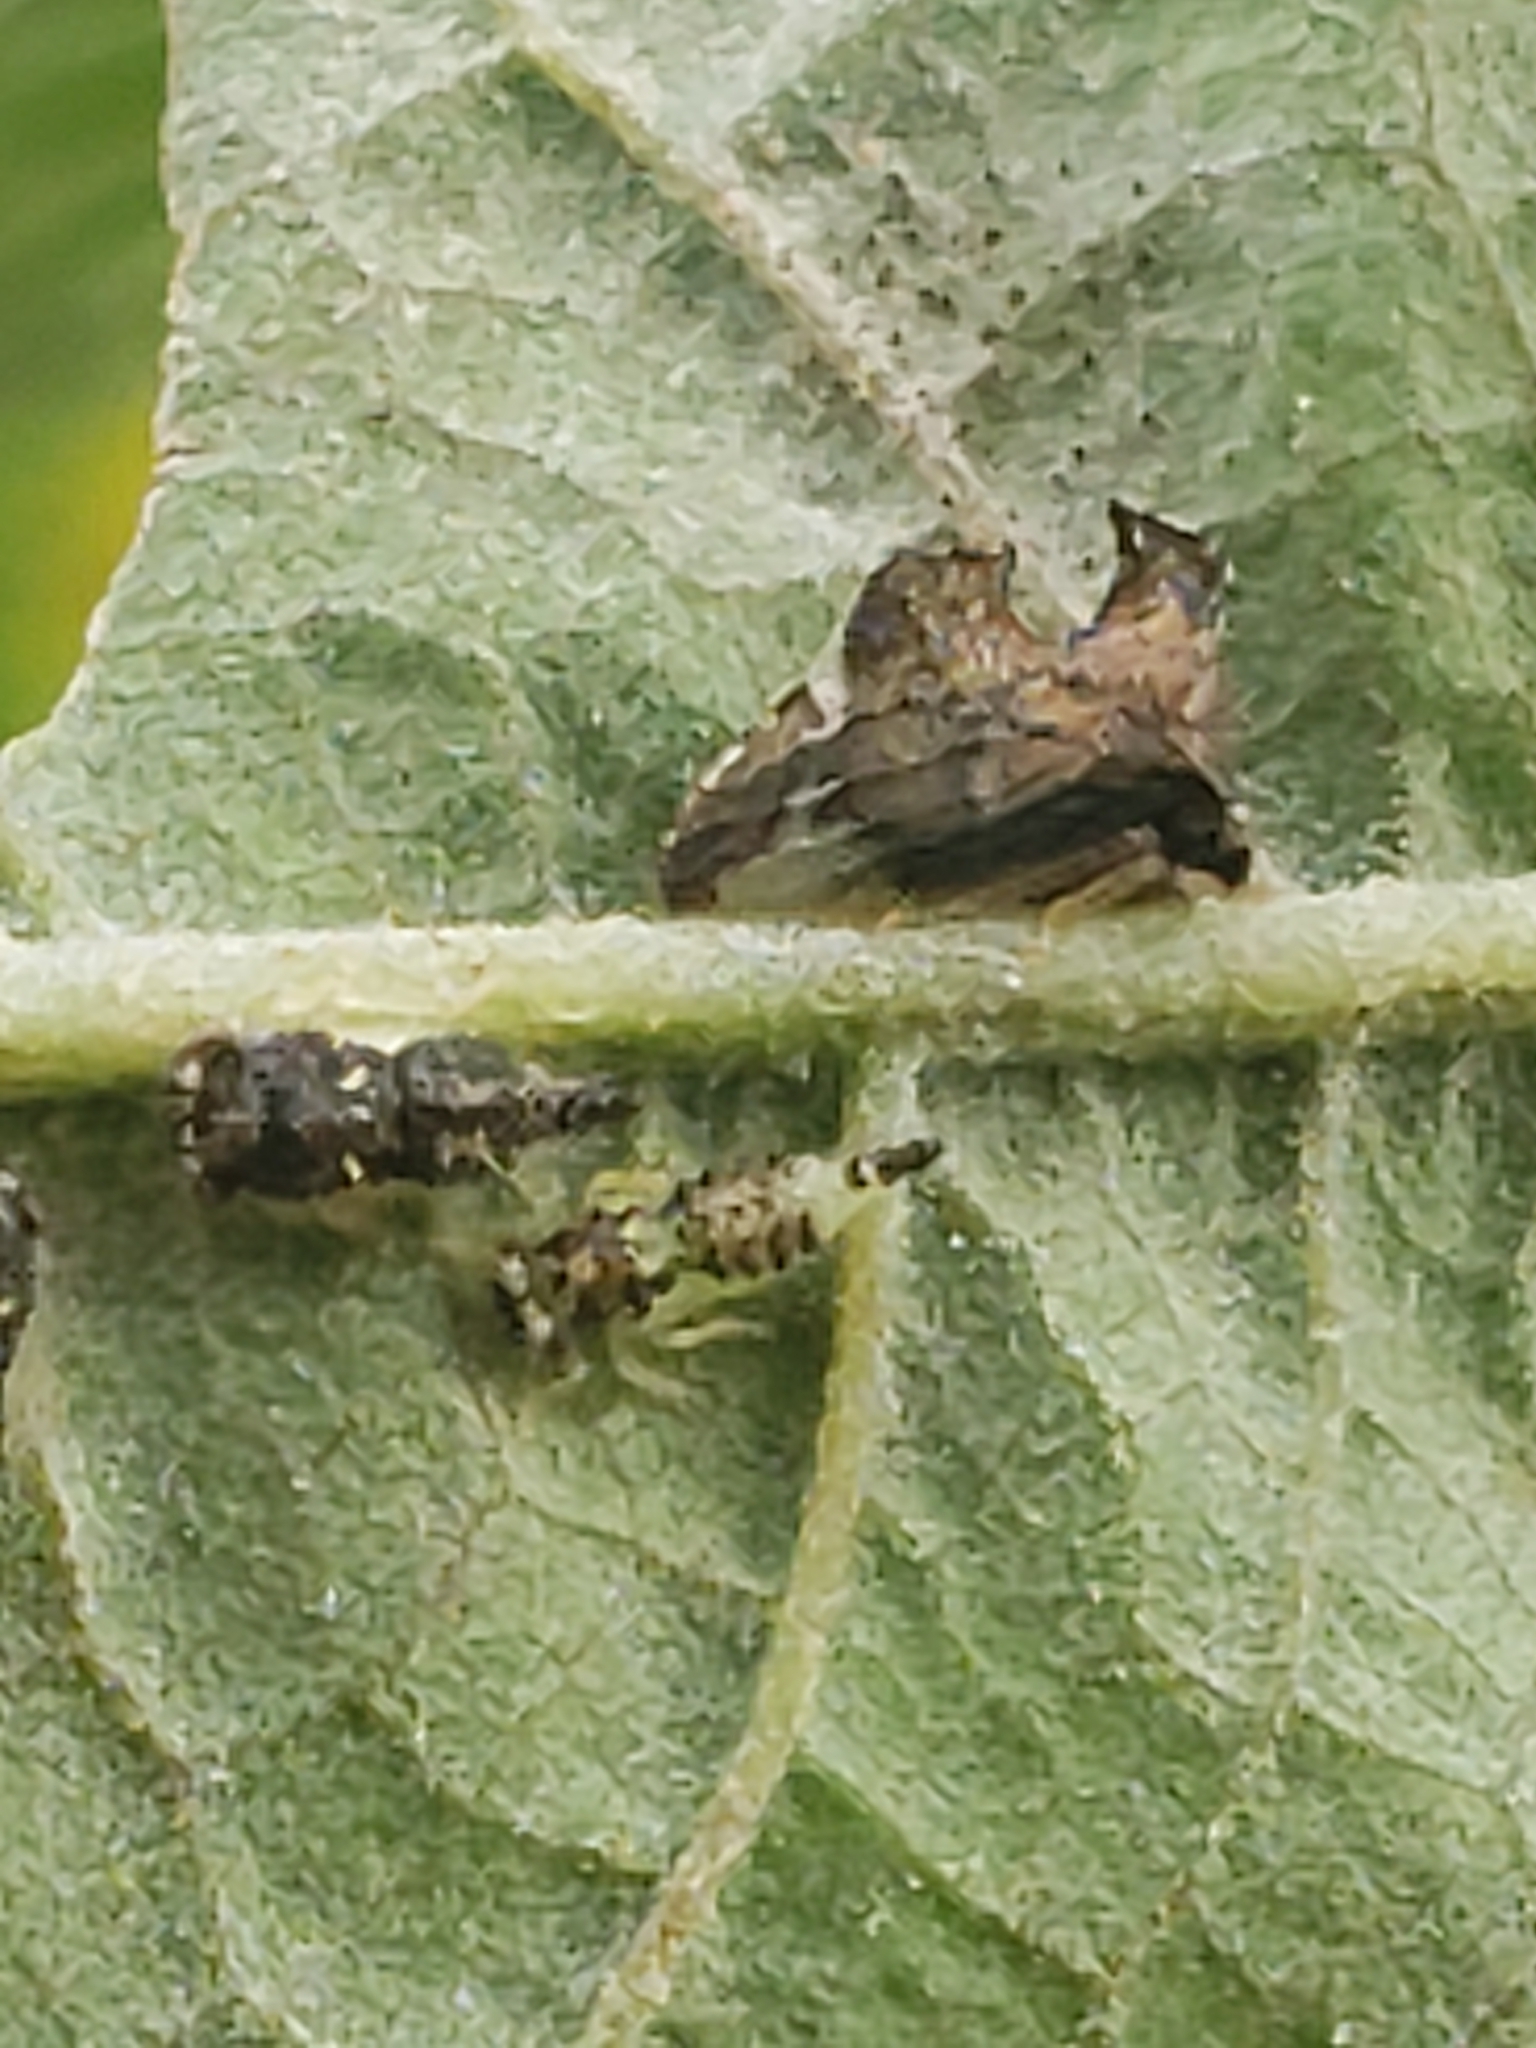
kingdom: Animalia
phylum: Arthropoda
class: Insecta
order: Hemiptera
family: Membracidae
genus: Entylia
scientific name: Entylia carinata
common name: Keeled treehopper
